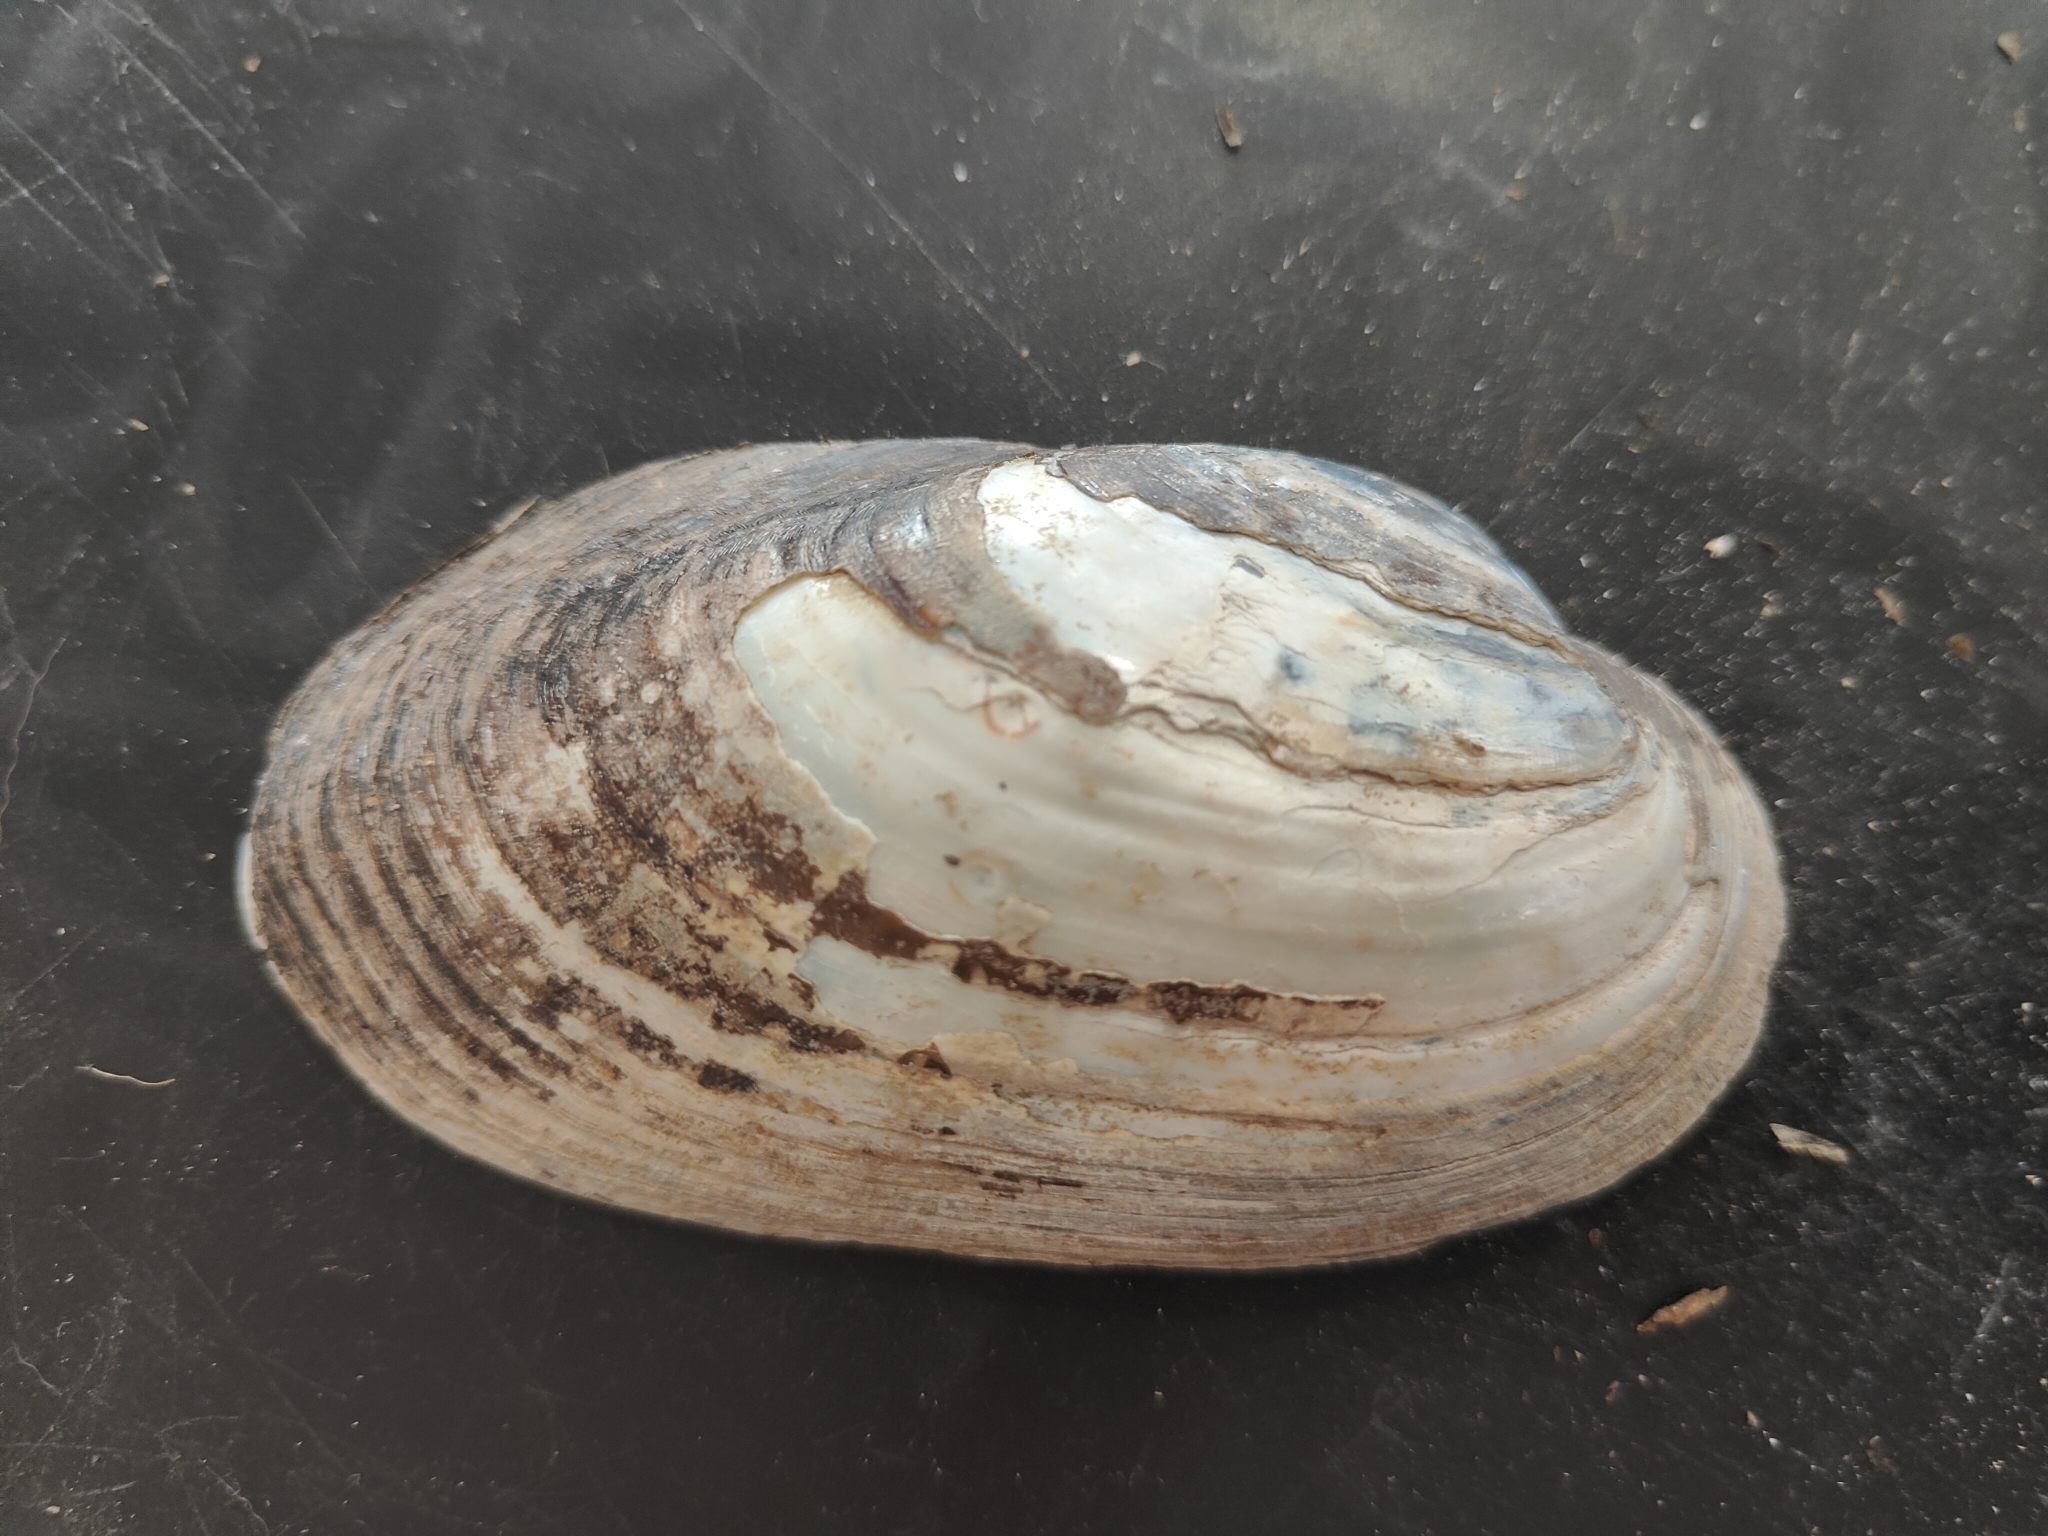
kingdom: Animalia
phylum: Mollusca
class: Bivalvia
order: Unionida
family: Unionidae
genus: Lampsilis
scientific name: Lampsilis siliquoidea
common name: Fatmucket
